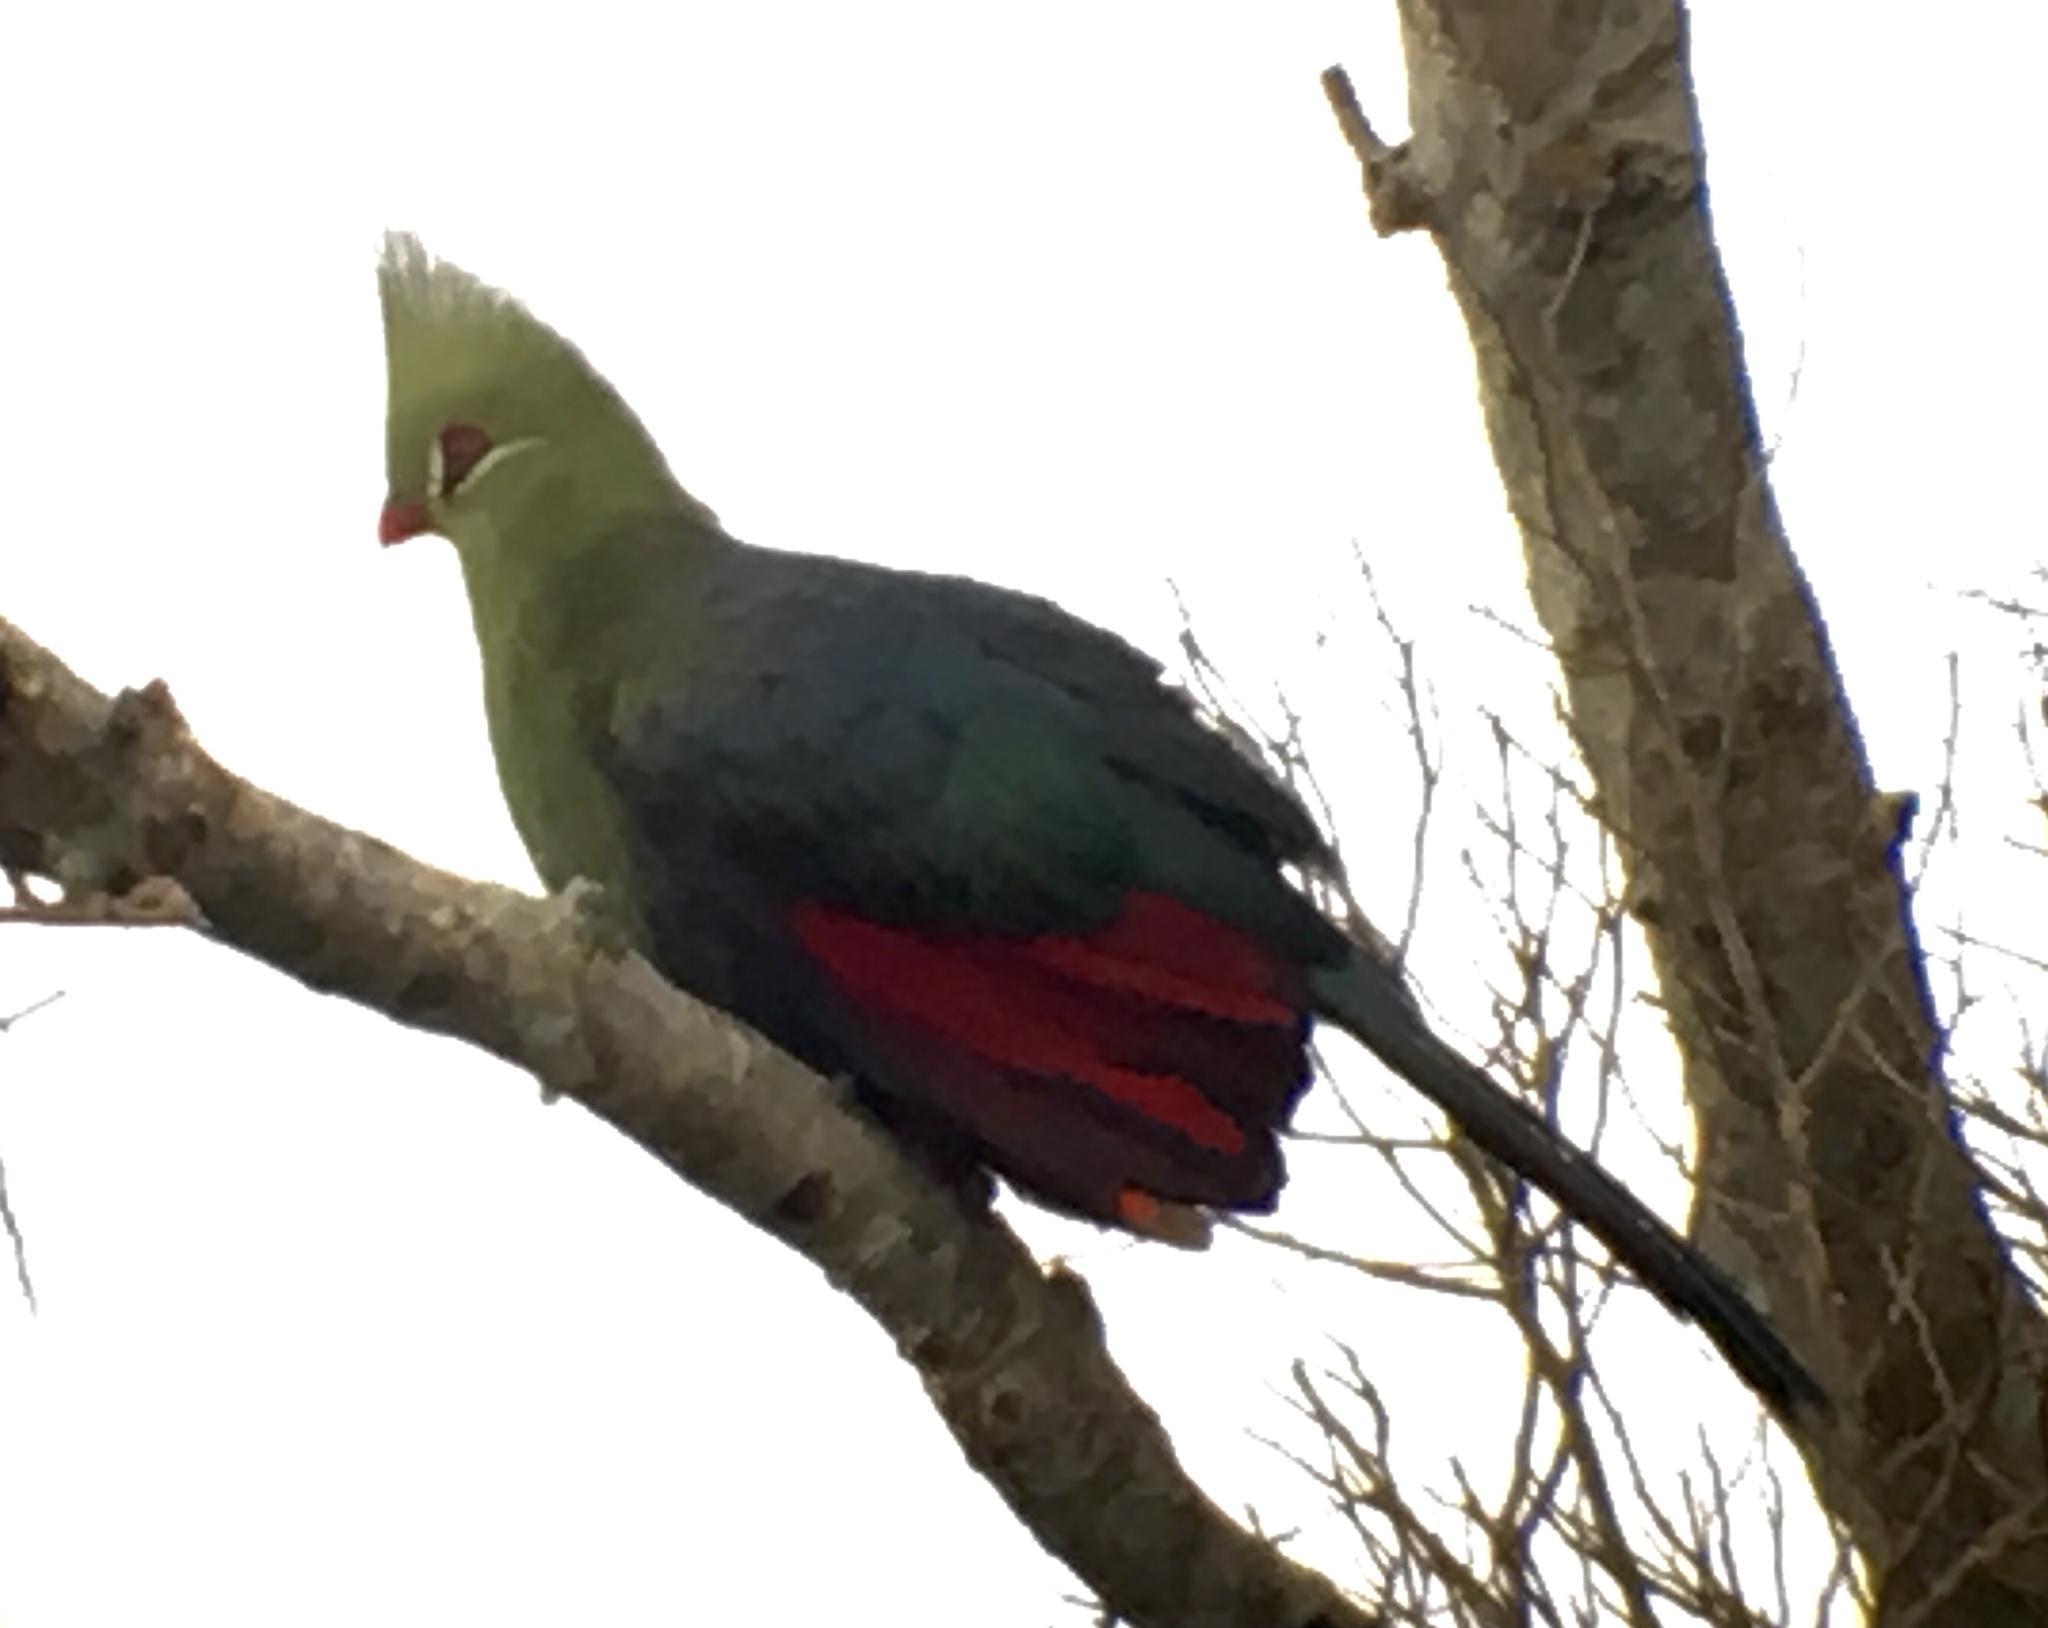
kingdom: Animalia
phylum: Chordata
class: Aves
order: Musophagiformes
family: Musophagidae
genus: Tauraco
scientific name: Tauraco livingstonii
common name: Livingstone's turaco
